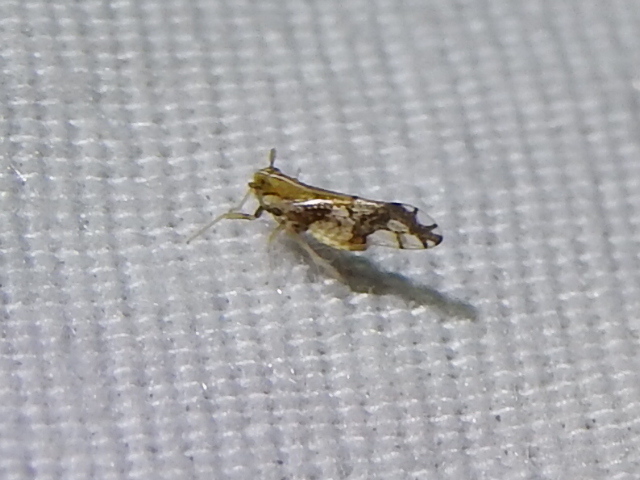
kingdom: Animalia
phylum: Arthropoda
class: Insecta
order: Hemiptera
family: Delphacidae
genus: Liburniella
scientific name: Liburniella ornata
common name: Ornate planthopper
